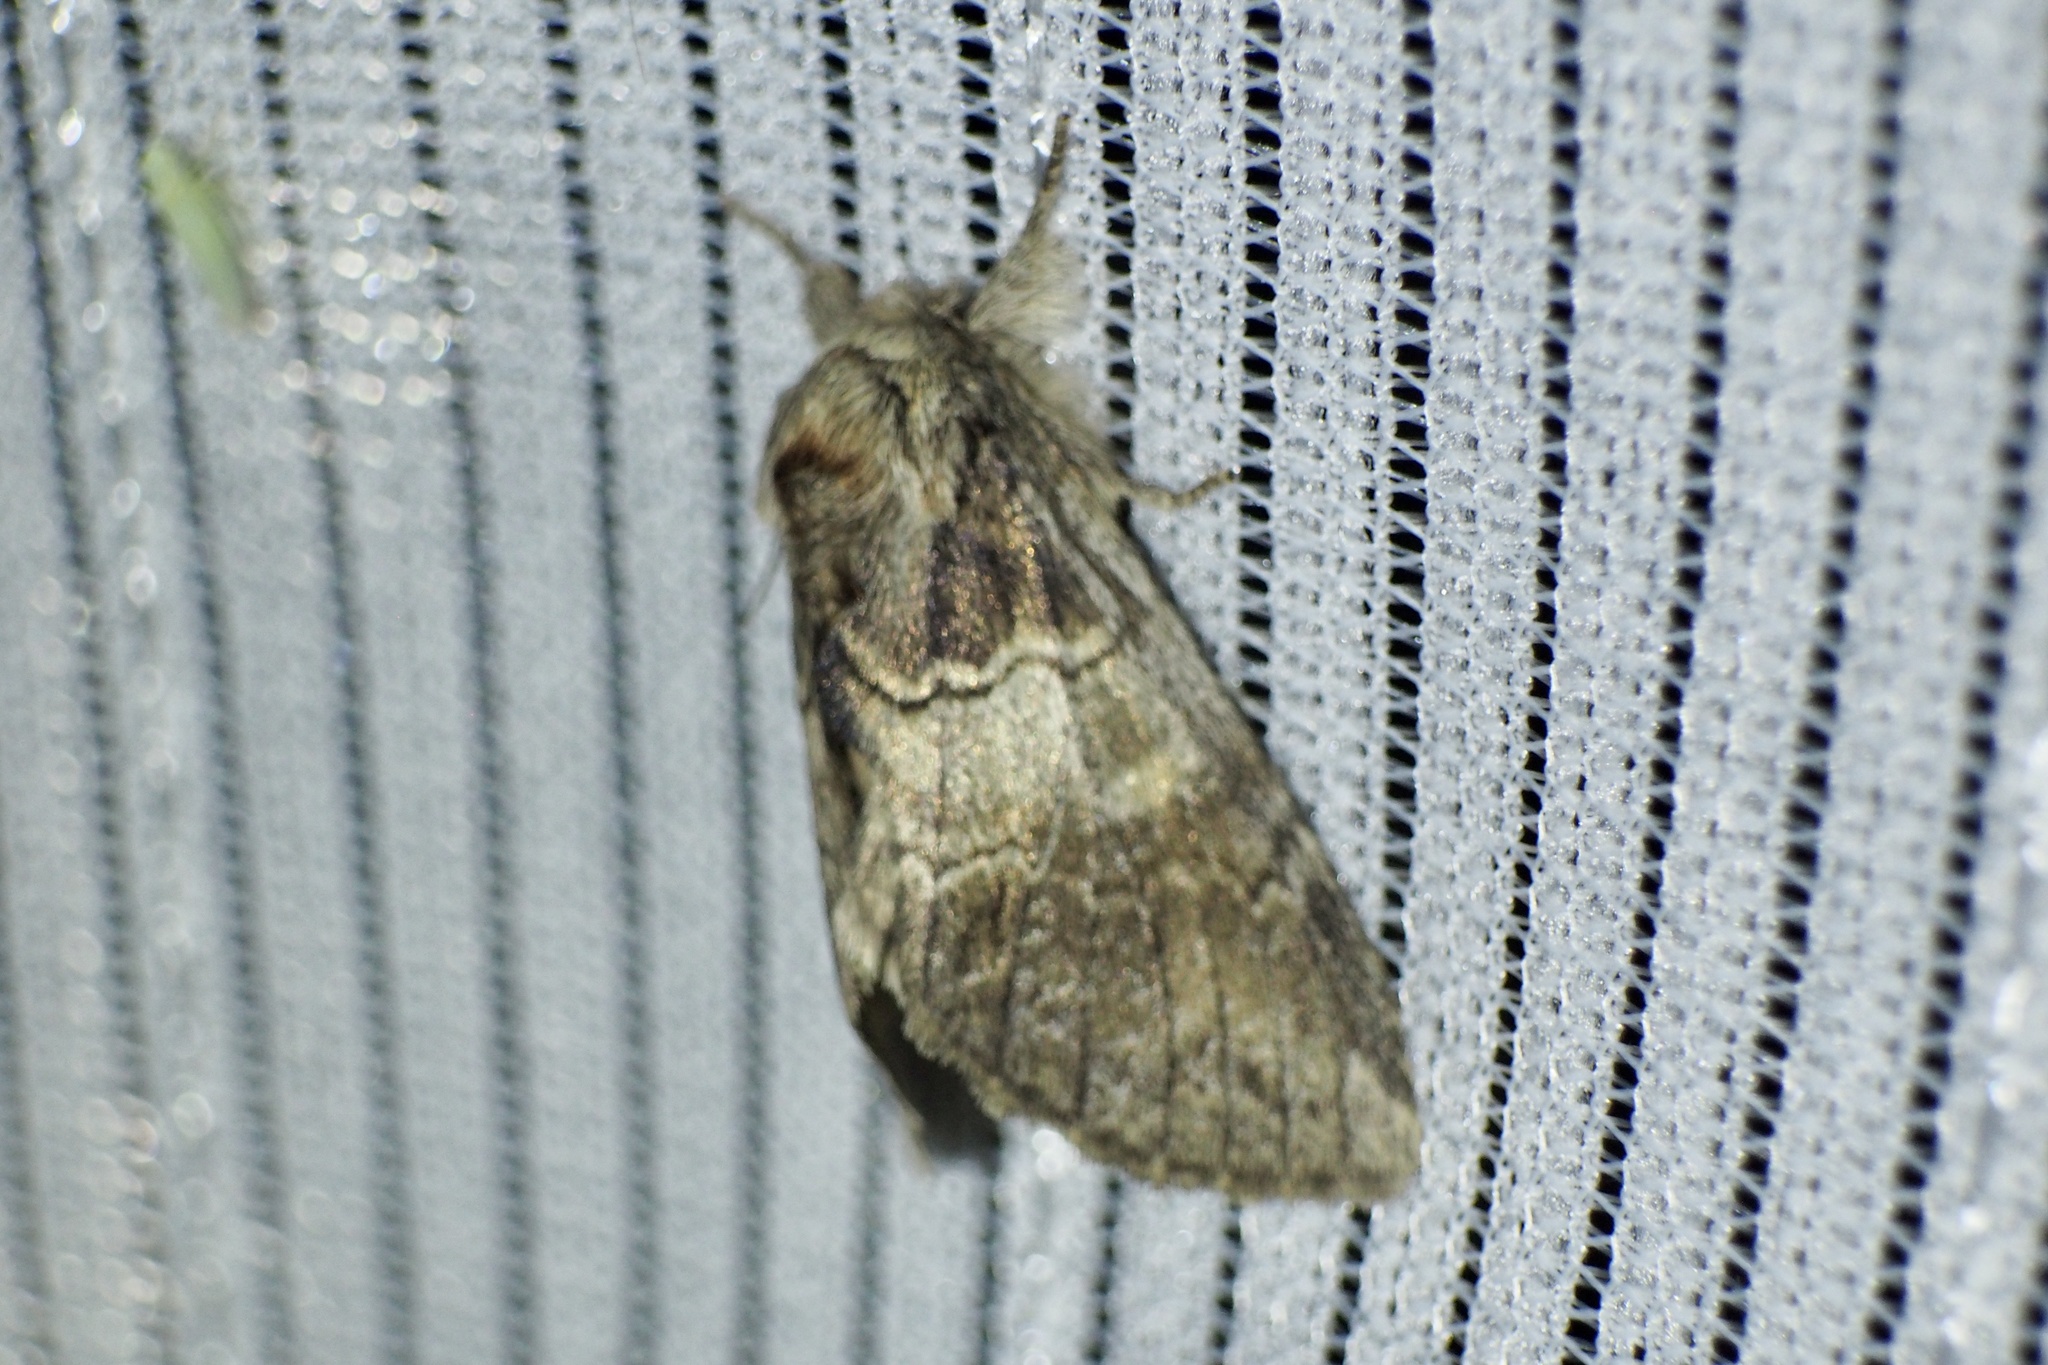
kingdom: Animalia
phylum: Arthropoda
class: Insecta
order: Lepidoptera
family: Notodontidae
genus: Peridea
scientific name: Peridea oberthueri
